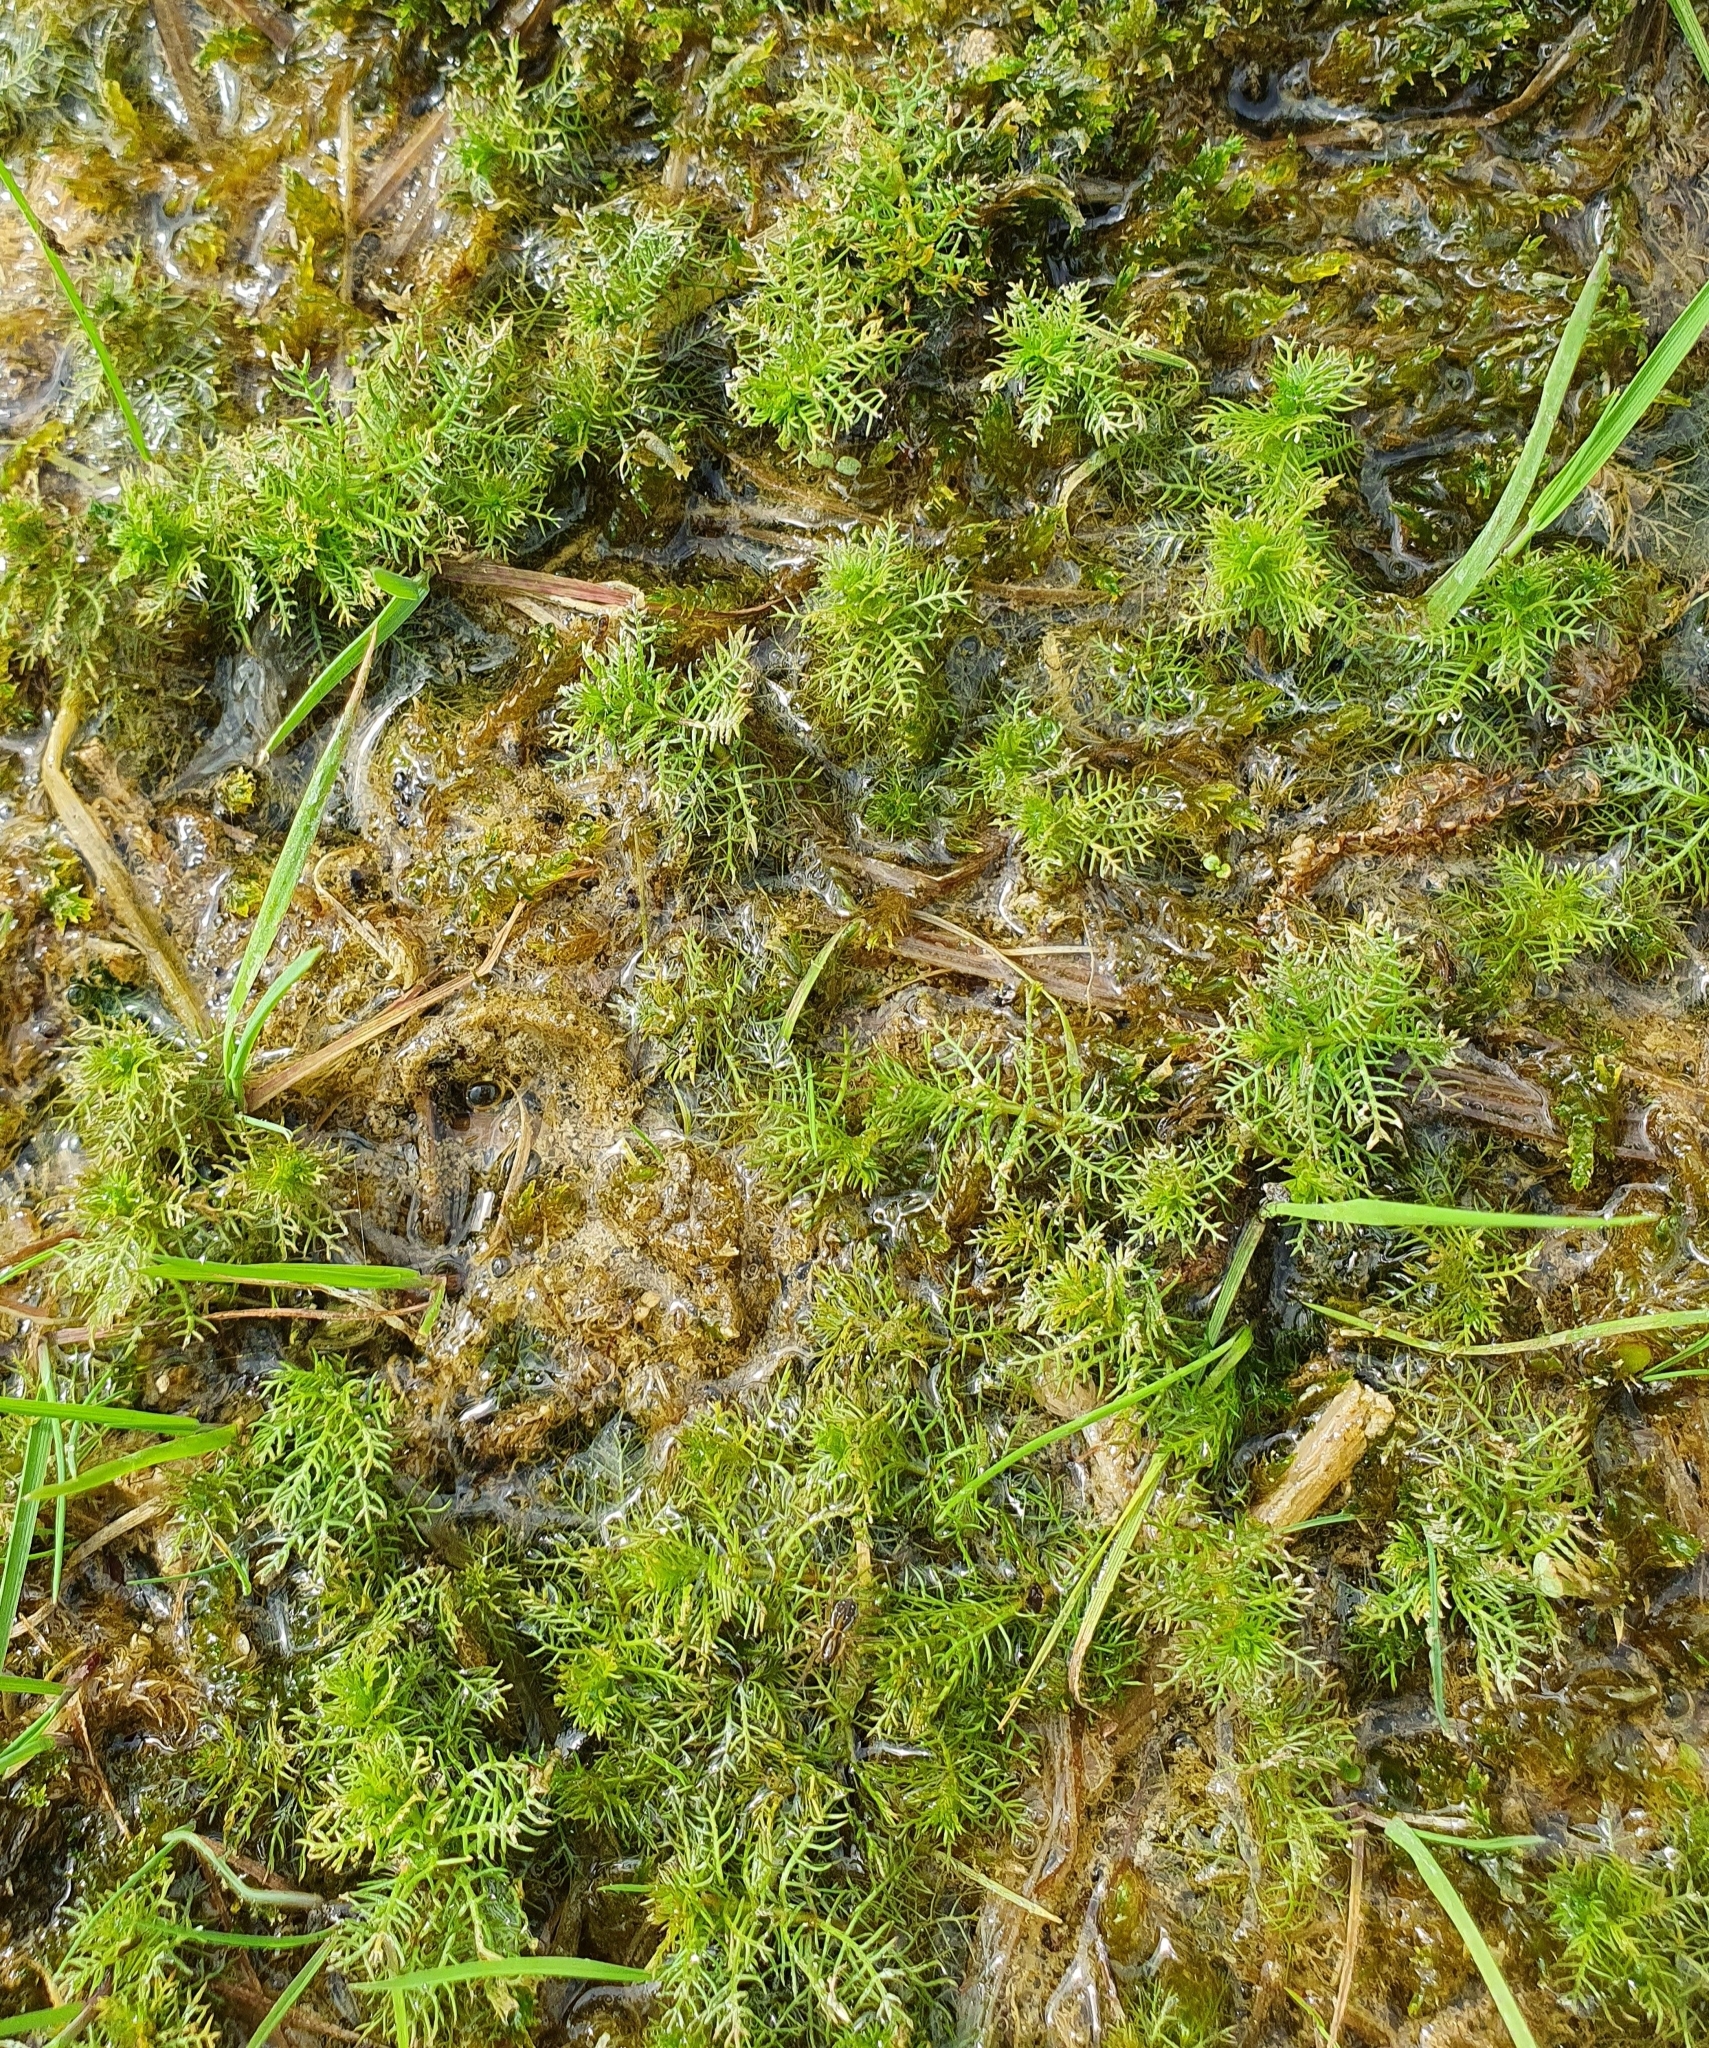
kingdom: Plantae
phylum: Tracheophyta
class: Magnoliopsida
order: Saxifragales
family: Haloragaceae
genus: Myriophyllum
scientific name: Myriophyllum verticillatum
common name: Whorled water-milfoil
